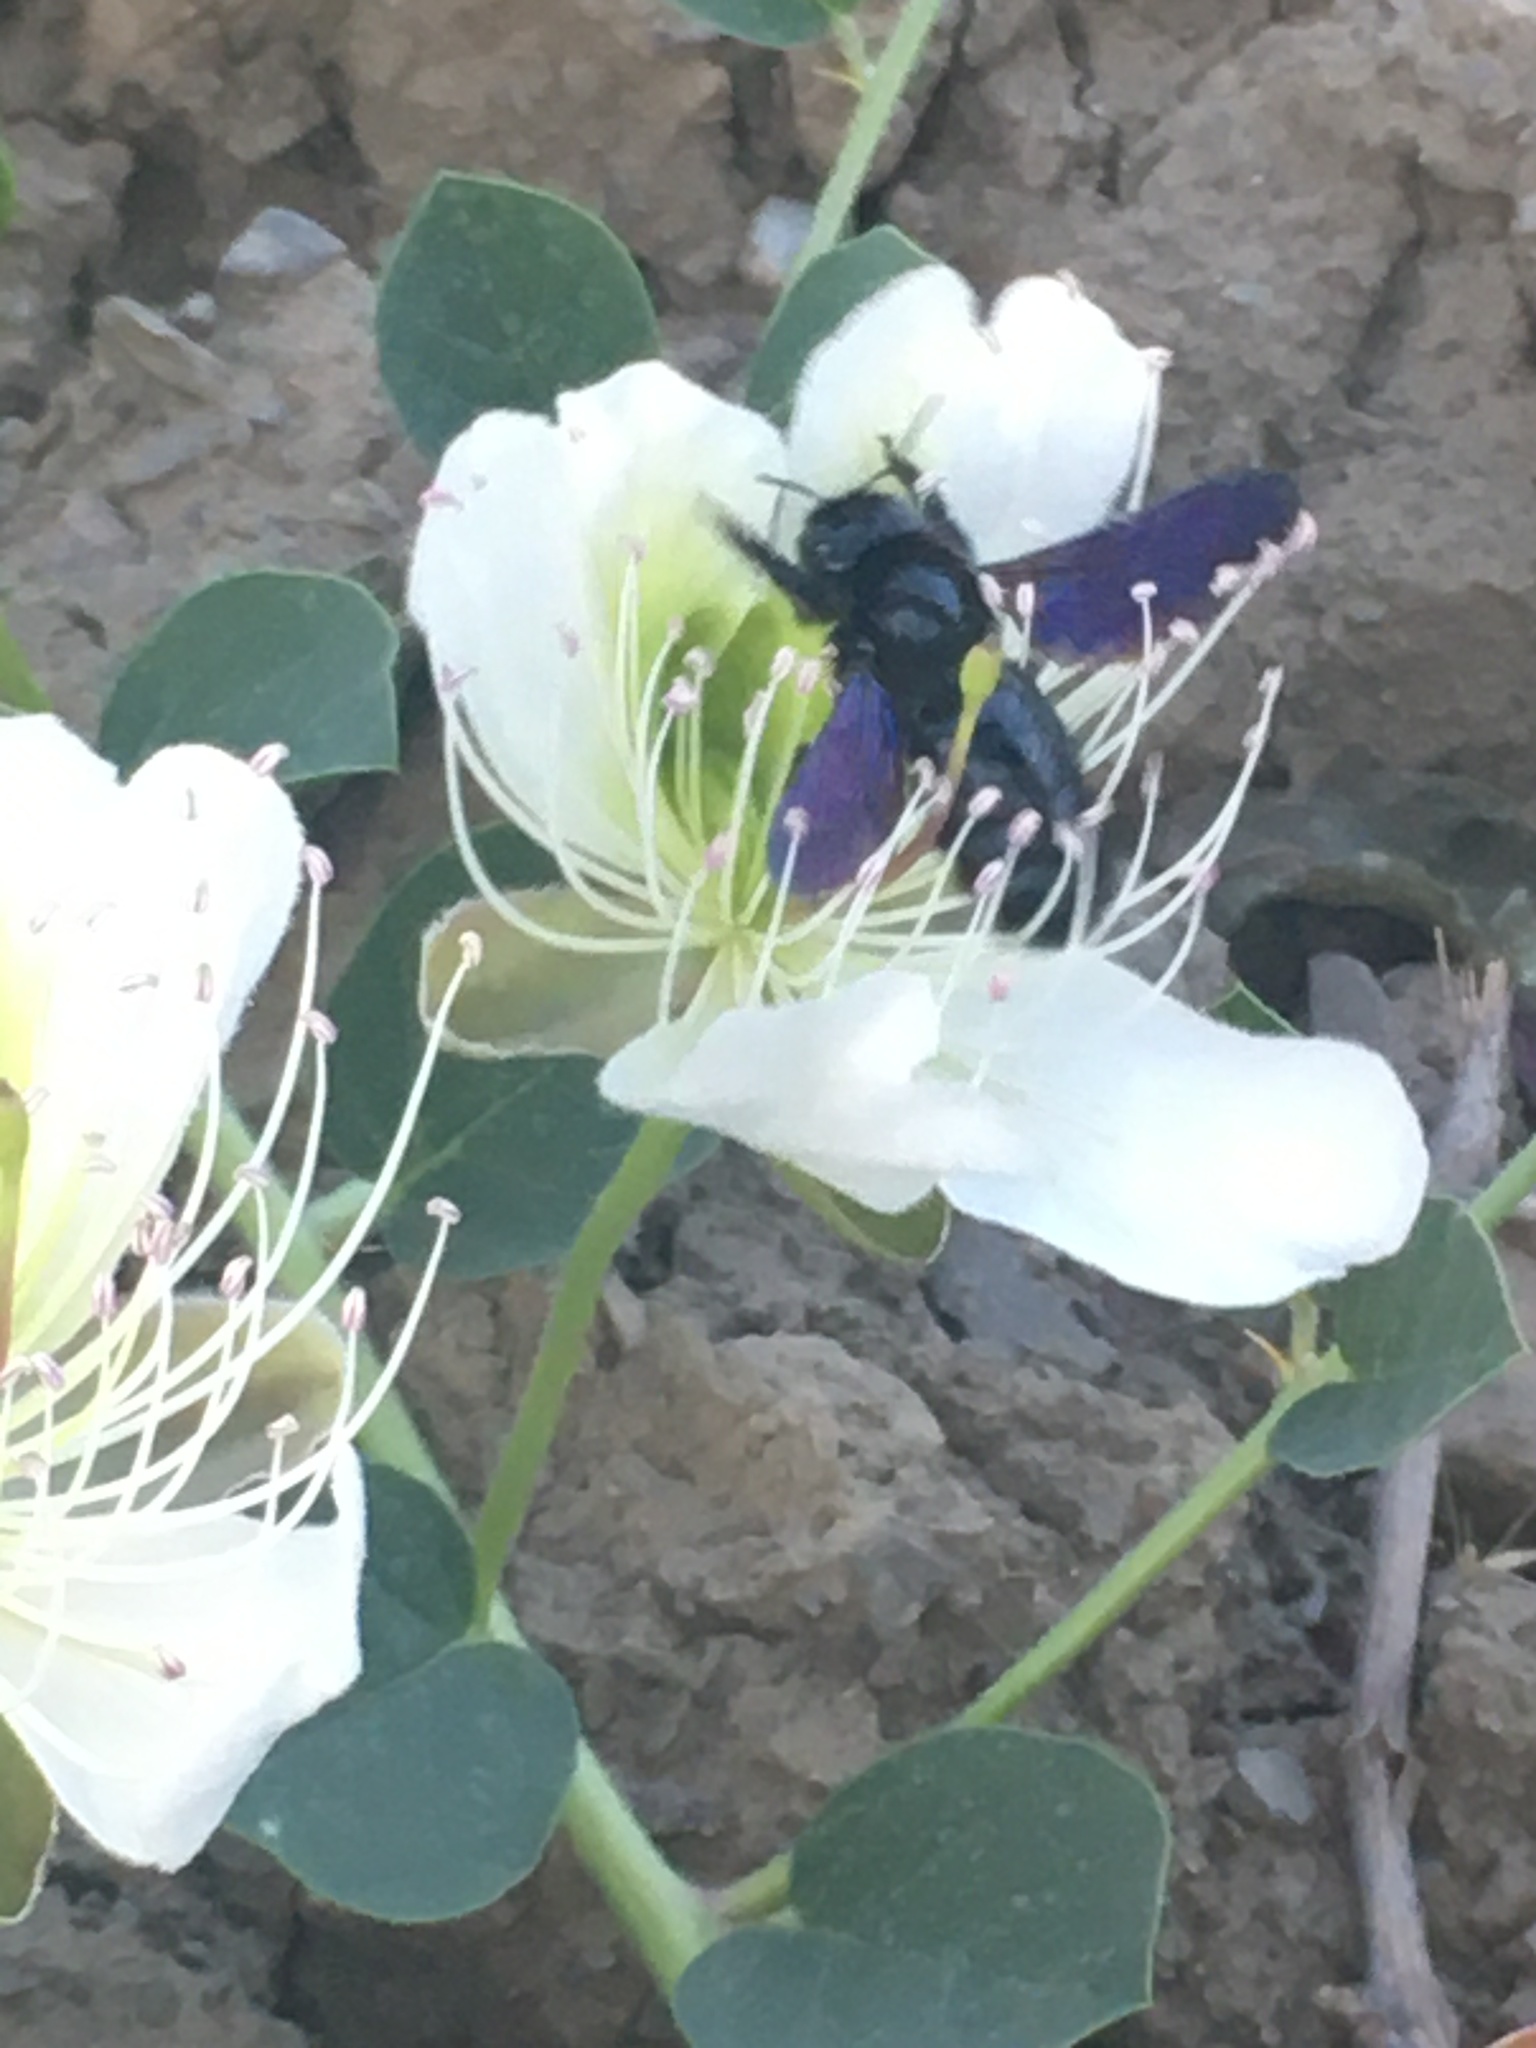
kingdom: Animalia
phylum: Arthropoda
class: Insecta
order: Hymenoptera
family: Apidae
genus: Xylocopa
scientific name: Xylocopa
